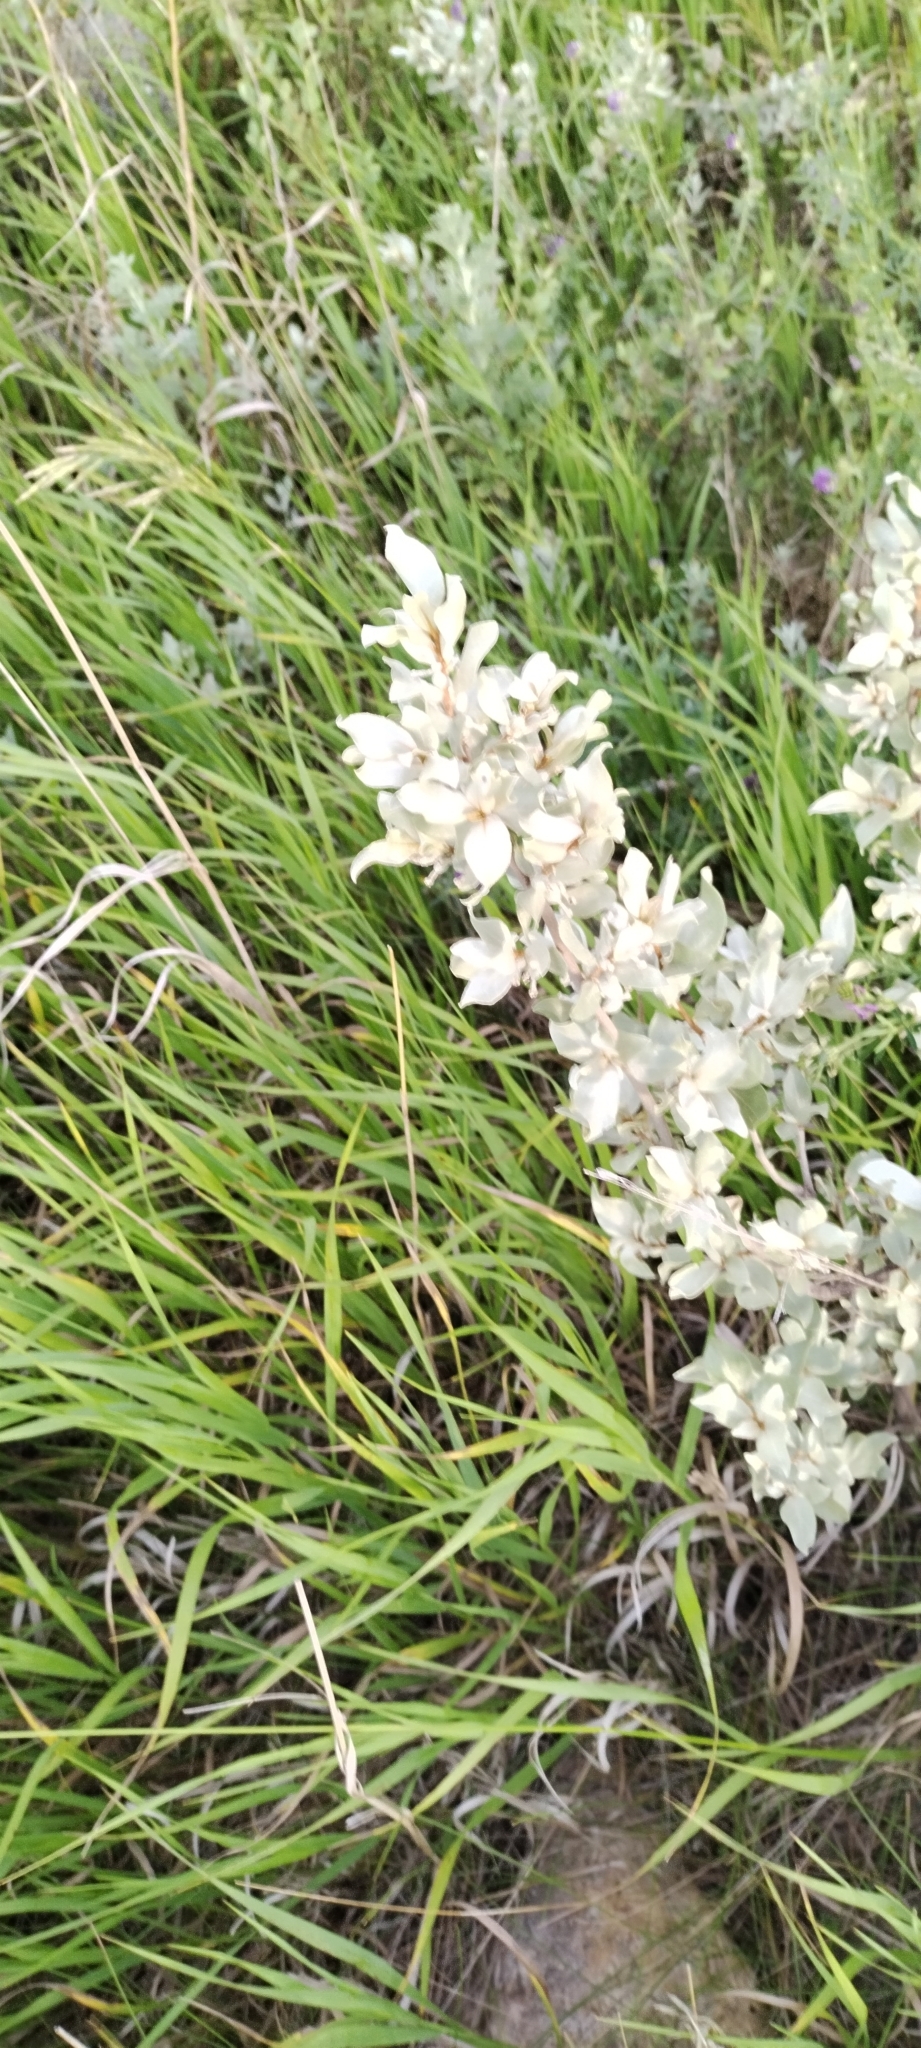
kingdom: Plantae
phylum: Tracheophyta
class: Magnoliopsida
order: Rosales
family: Elaeagnaceae
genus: Elaeagnus
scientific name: Elaeagnus commutata
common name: Silverberry
